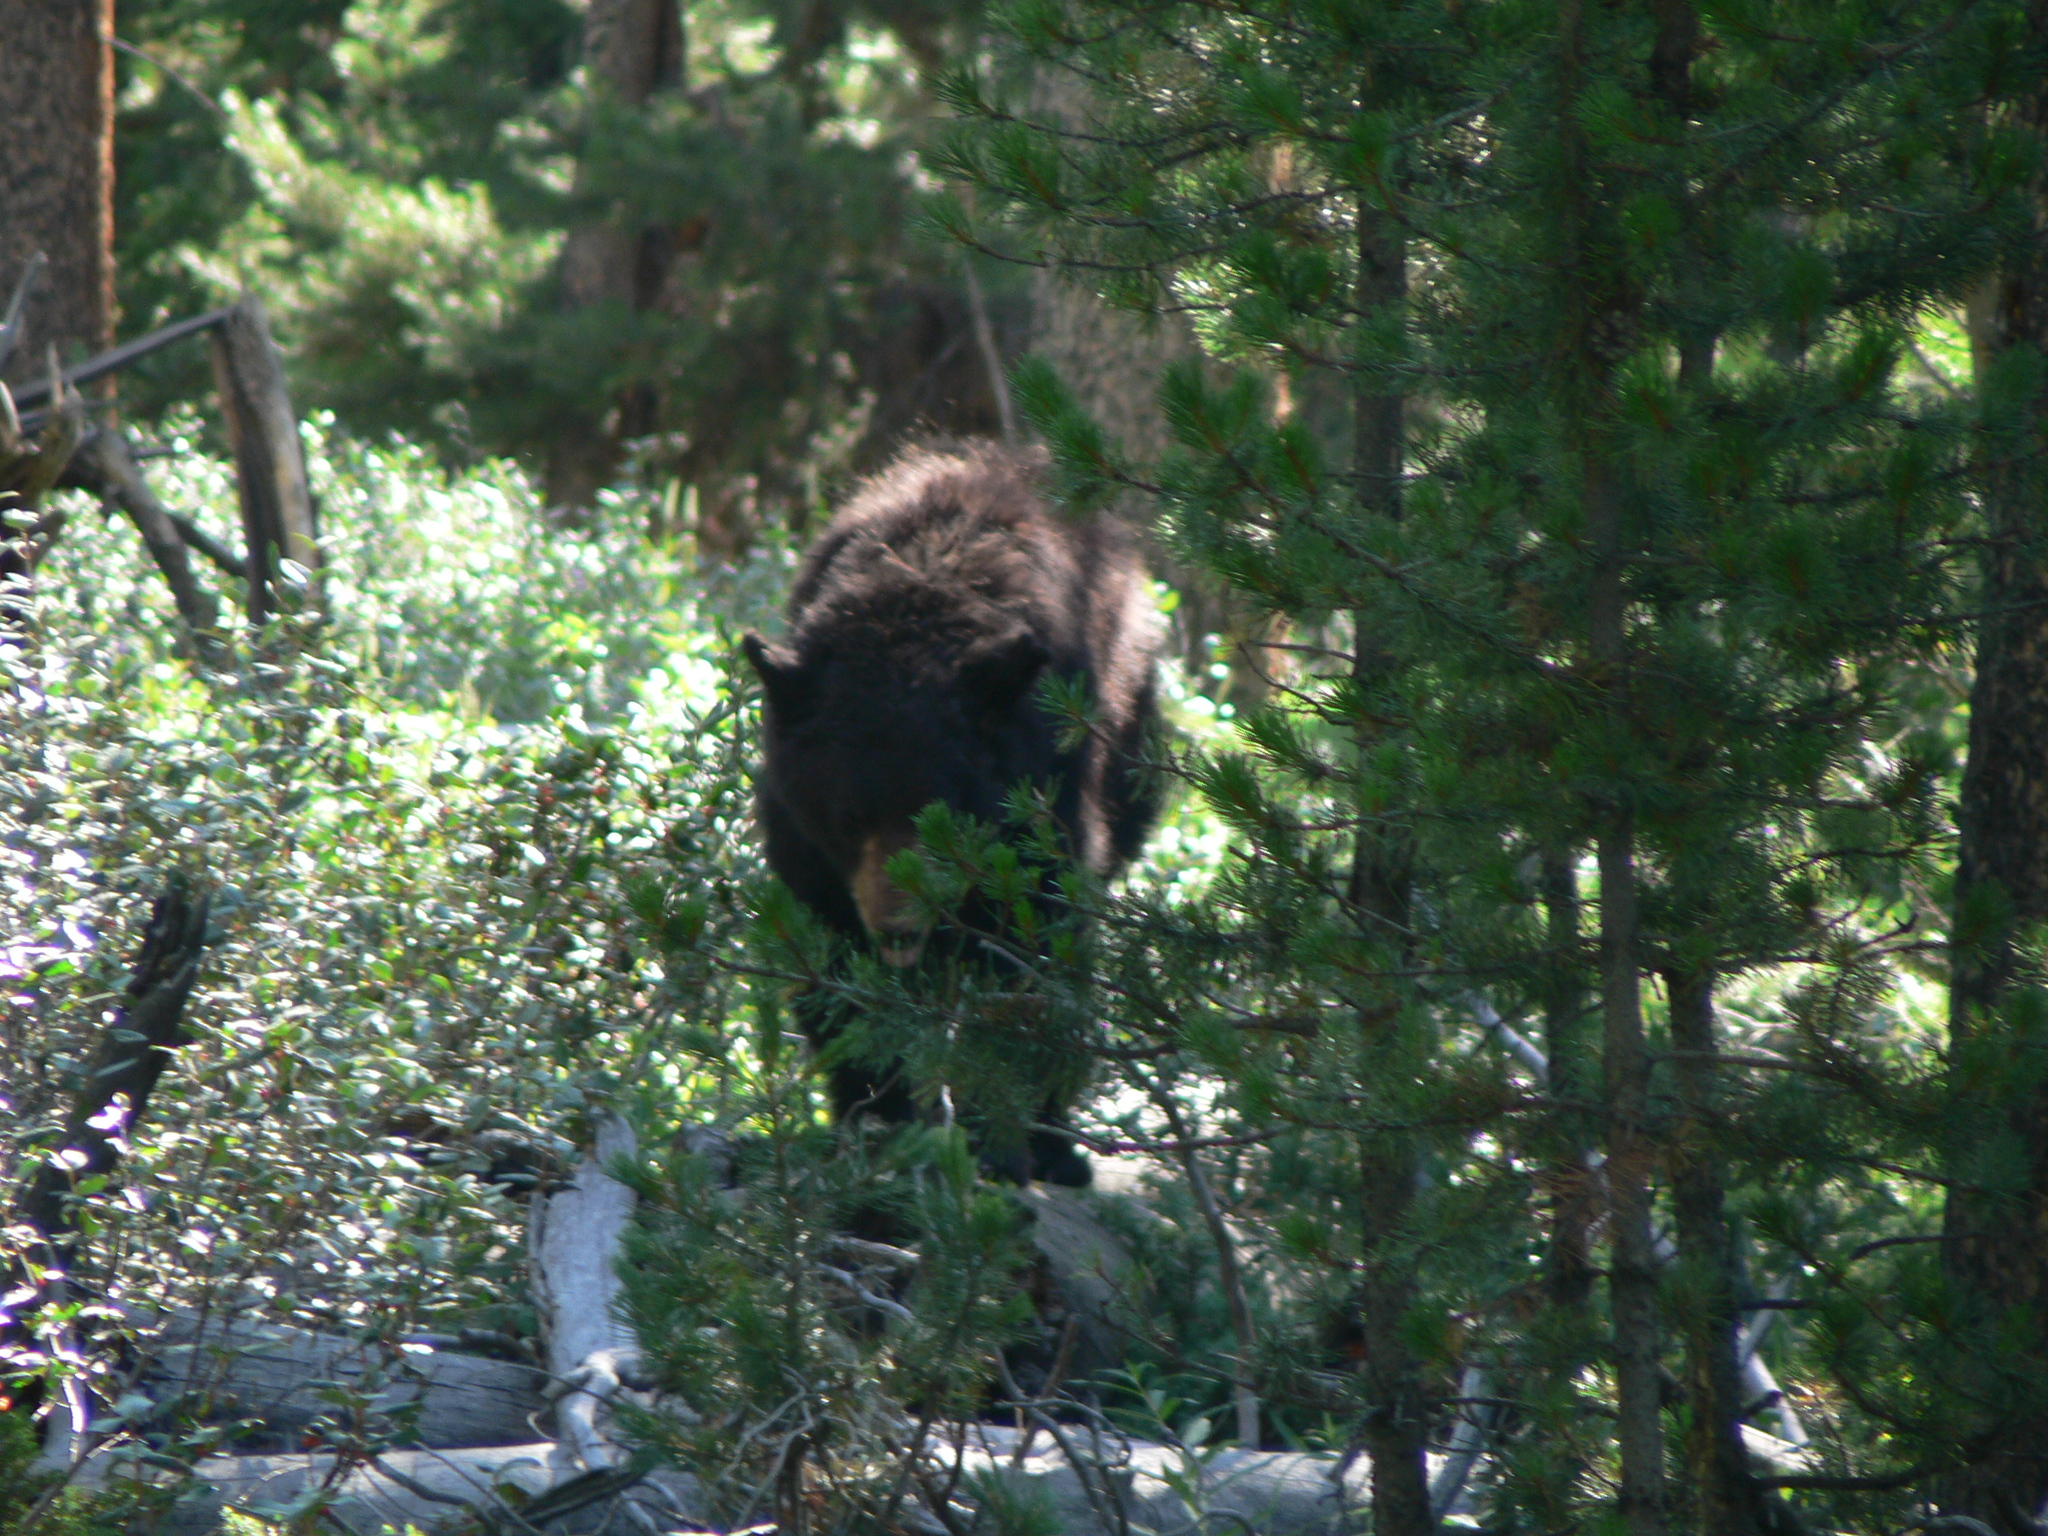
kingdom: Animalia
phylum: Chordata
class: Mammalia
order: Carnivora
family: Ursidae
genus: Ursus
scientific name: Ursus americanus
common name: American black bear
